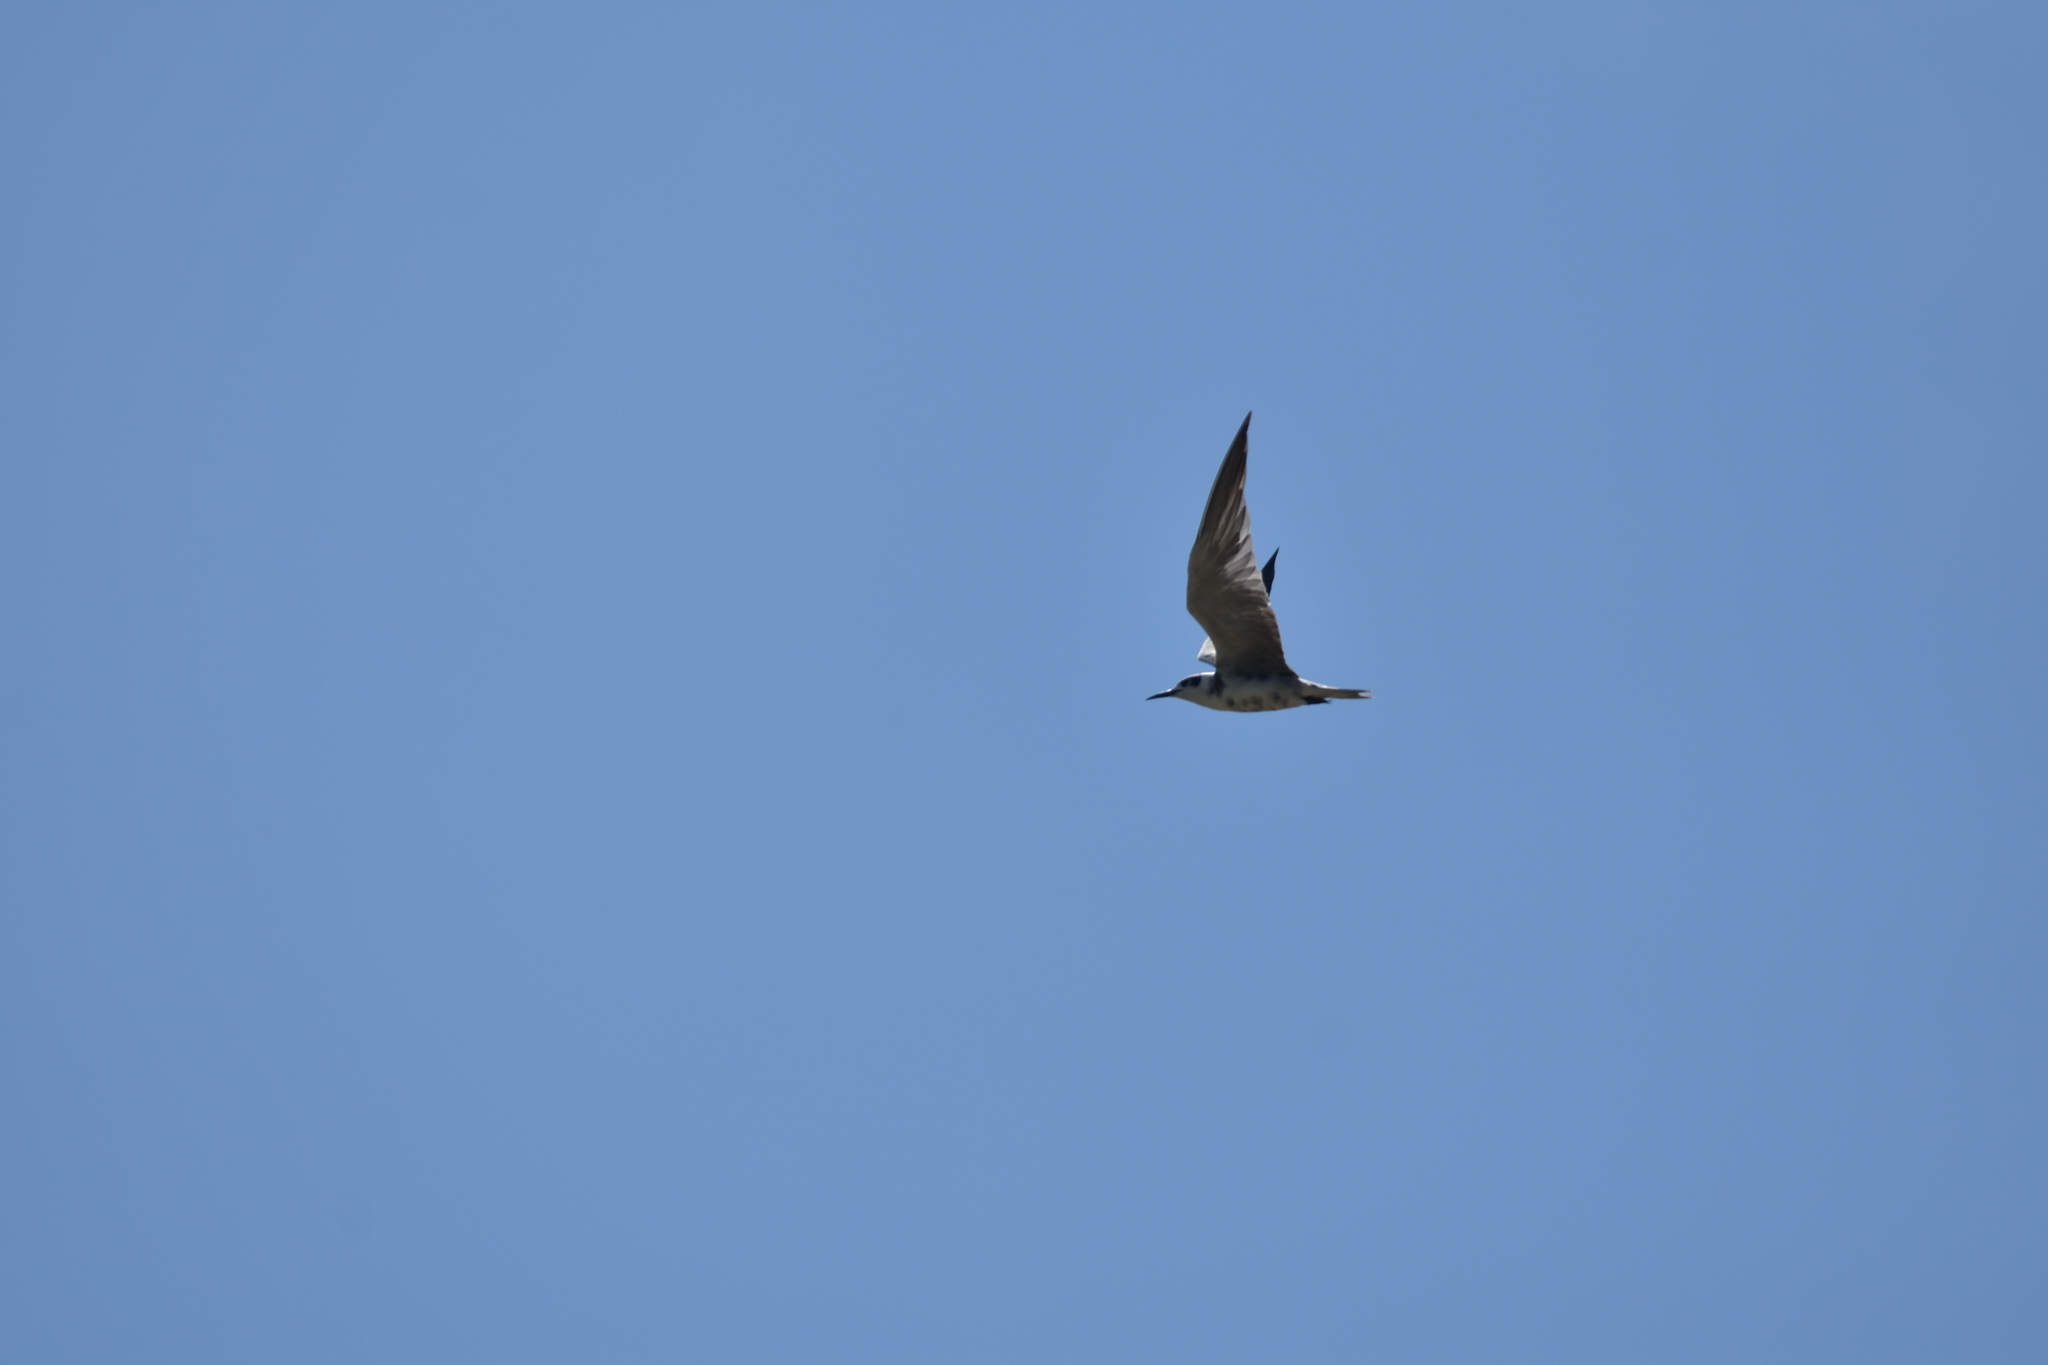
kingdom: Animalia
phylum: Chordata
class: Aves
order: Charadriiformes
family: Laridae
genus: Chlidonias
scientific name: Chlidonias niger
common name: Black tern
